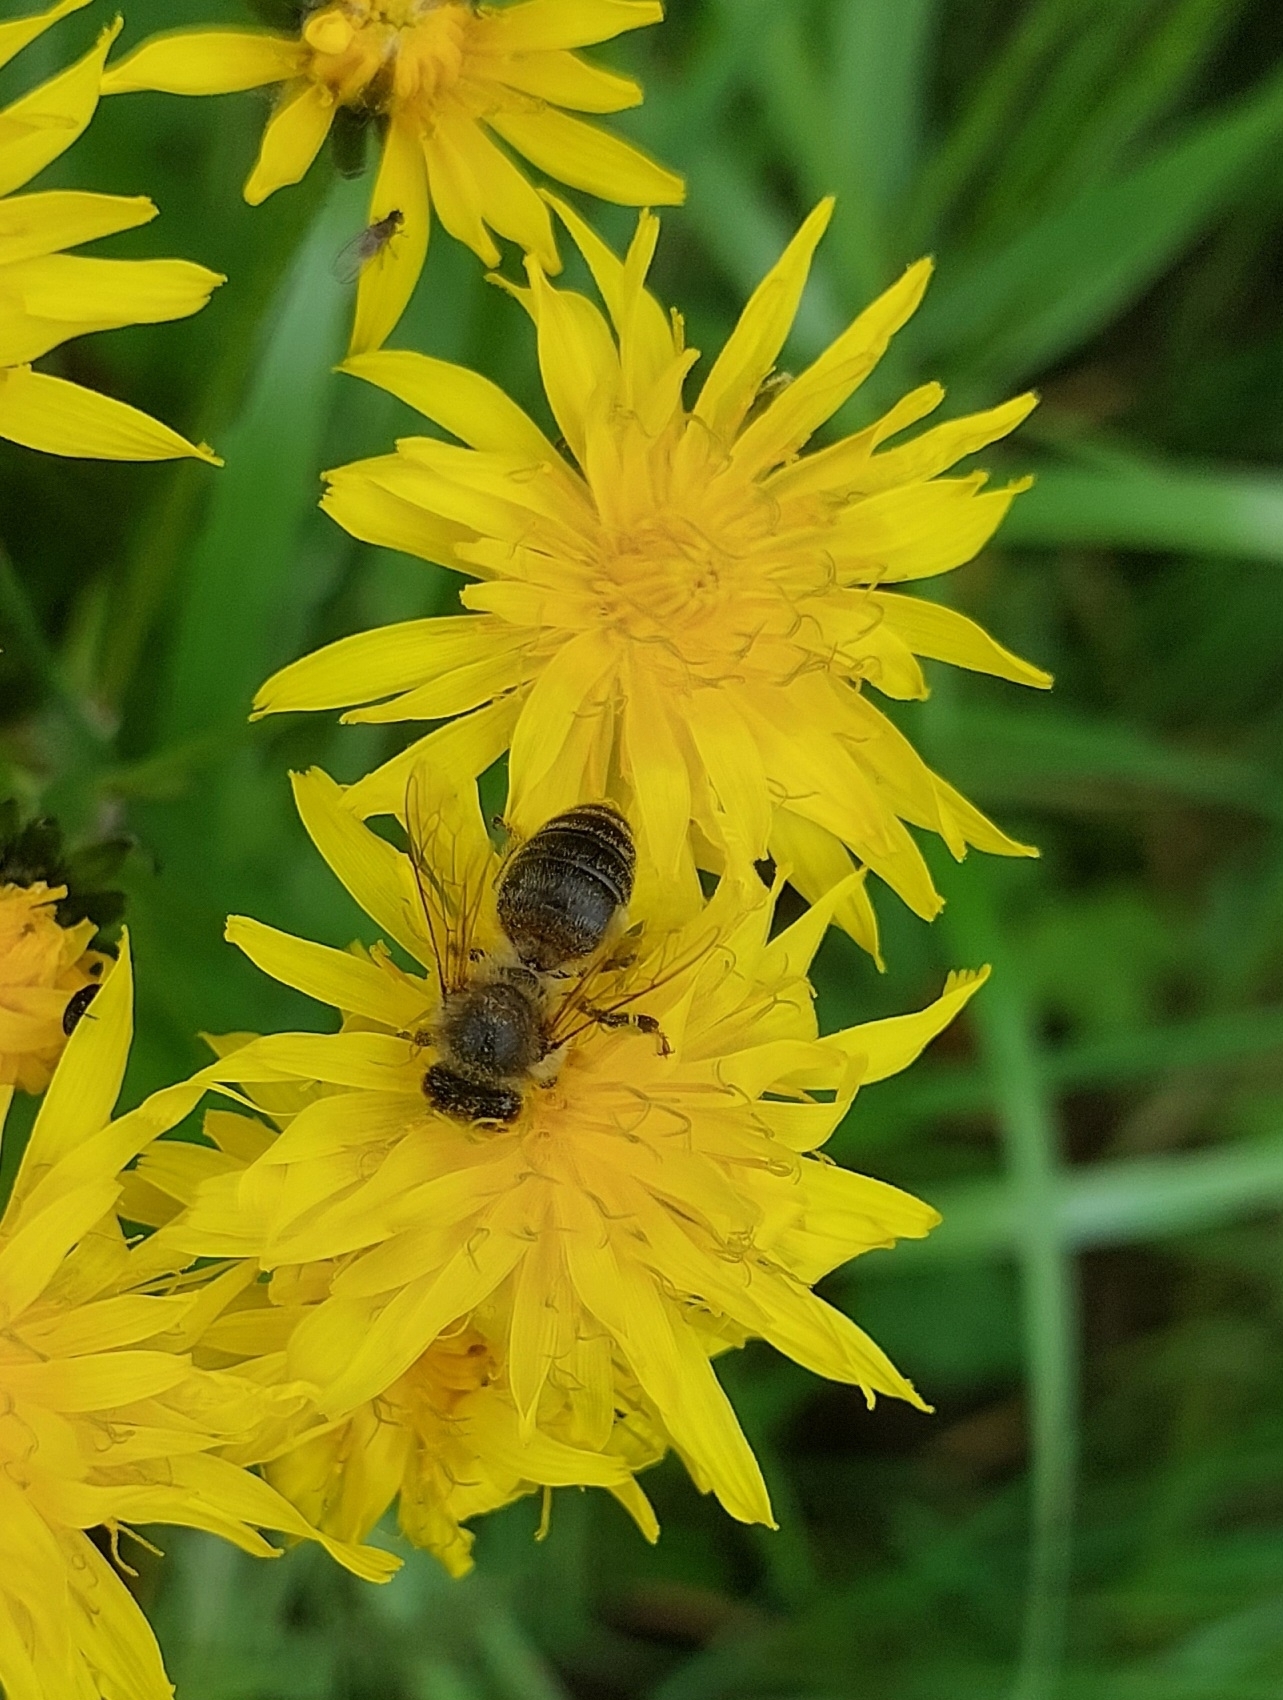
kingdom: Animalia
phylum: Arthropoda
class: Insecta
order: Hymenoptera
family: Apidae
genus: Apis
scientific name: Apis mellifera
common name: Honey bee
